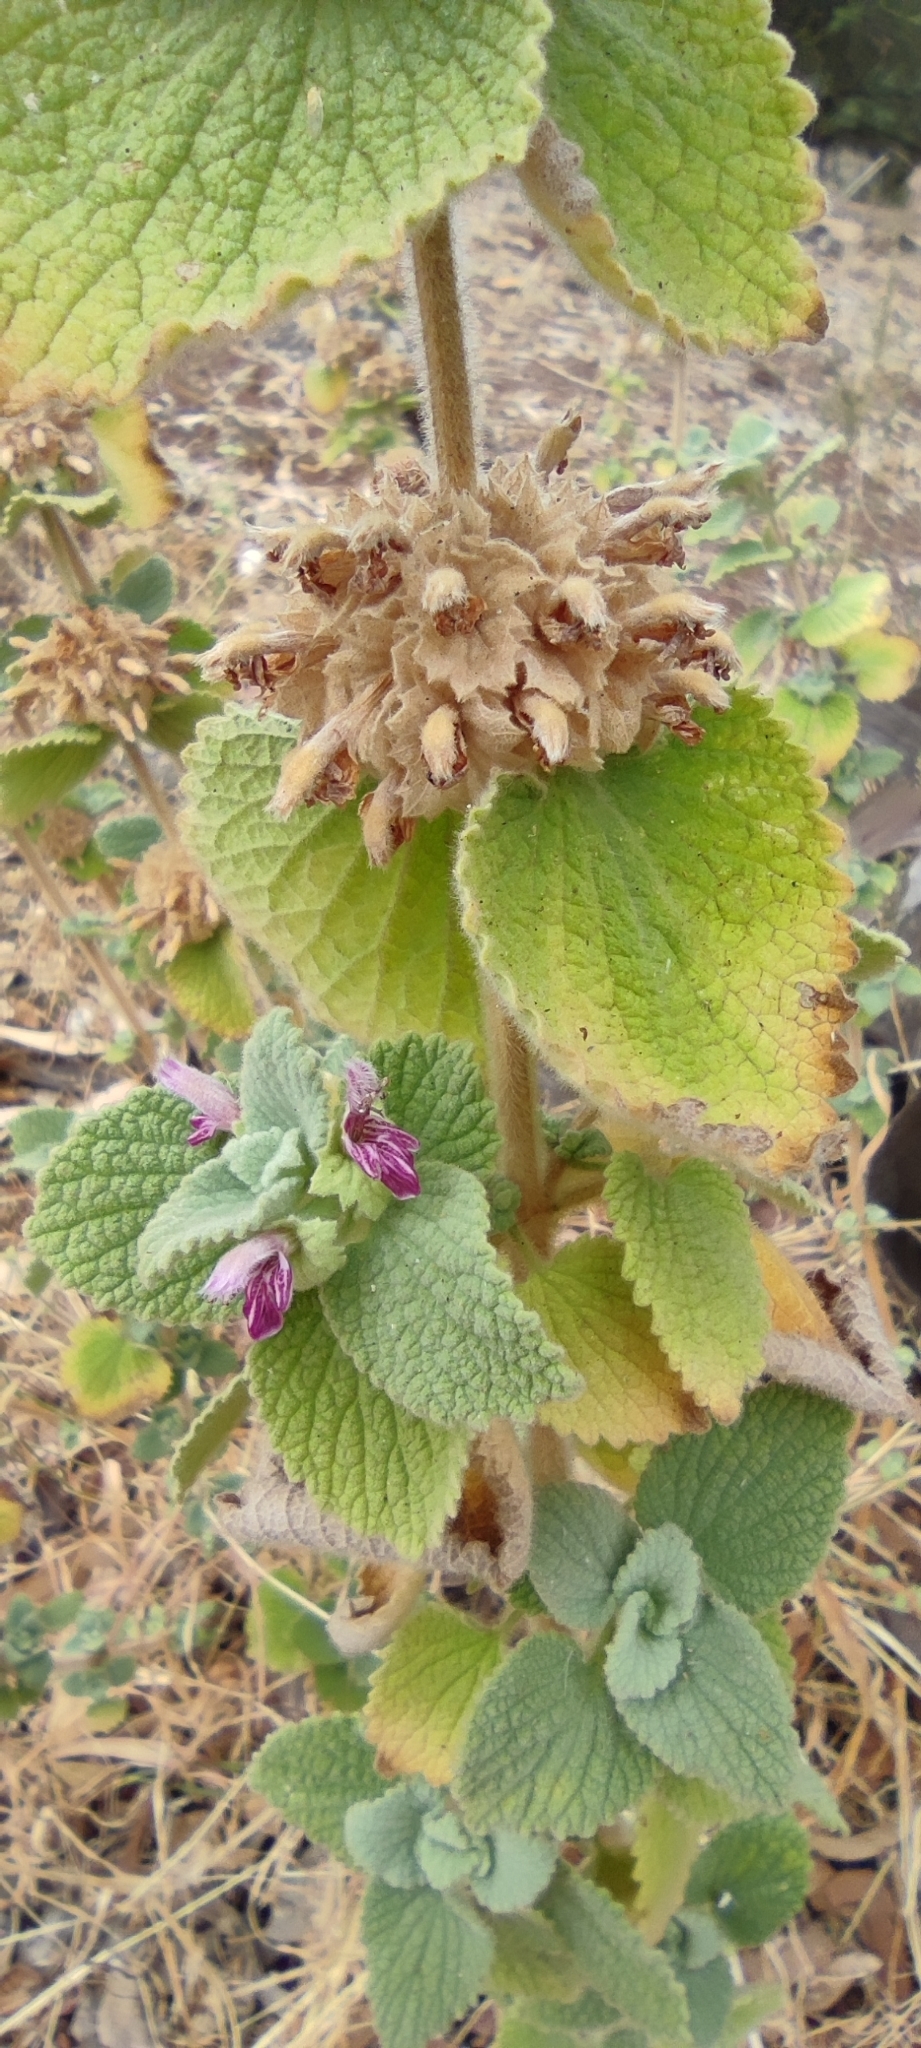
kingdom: Plantae
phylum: Tracheophyta
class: Magnoliopsida
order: Lamiales
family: Lamiaceae
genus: Pseudodictamnus
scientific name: Pseudodictamnus hirsutus
